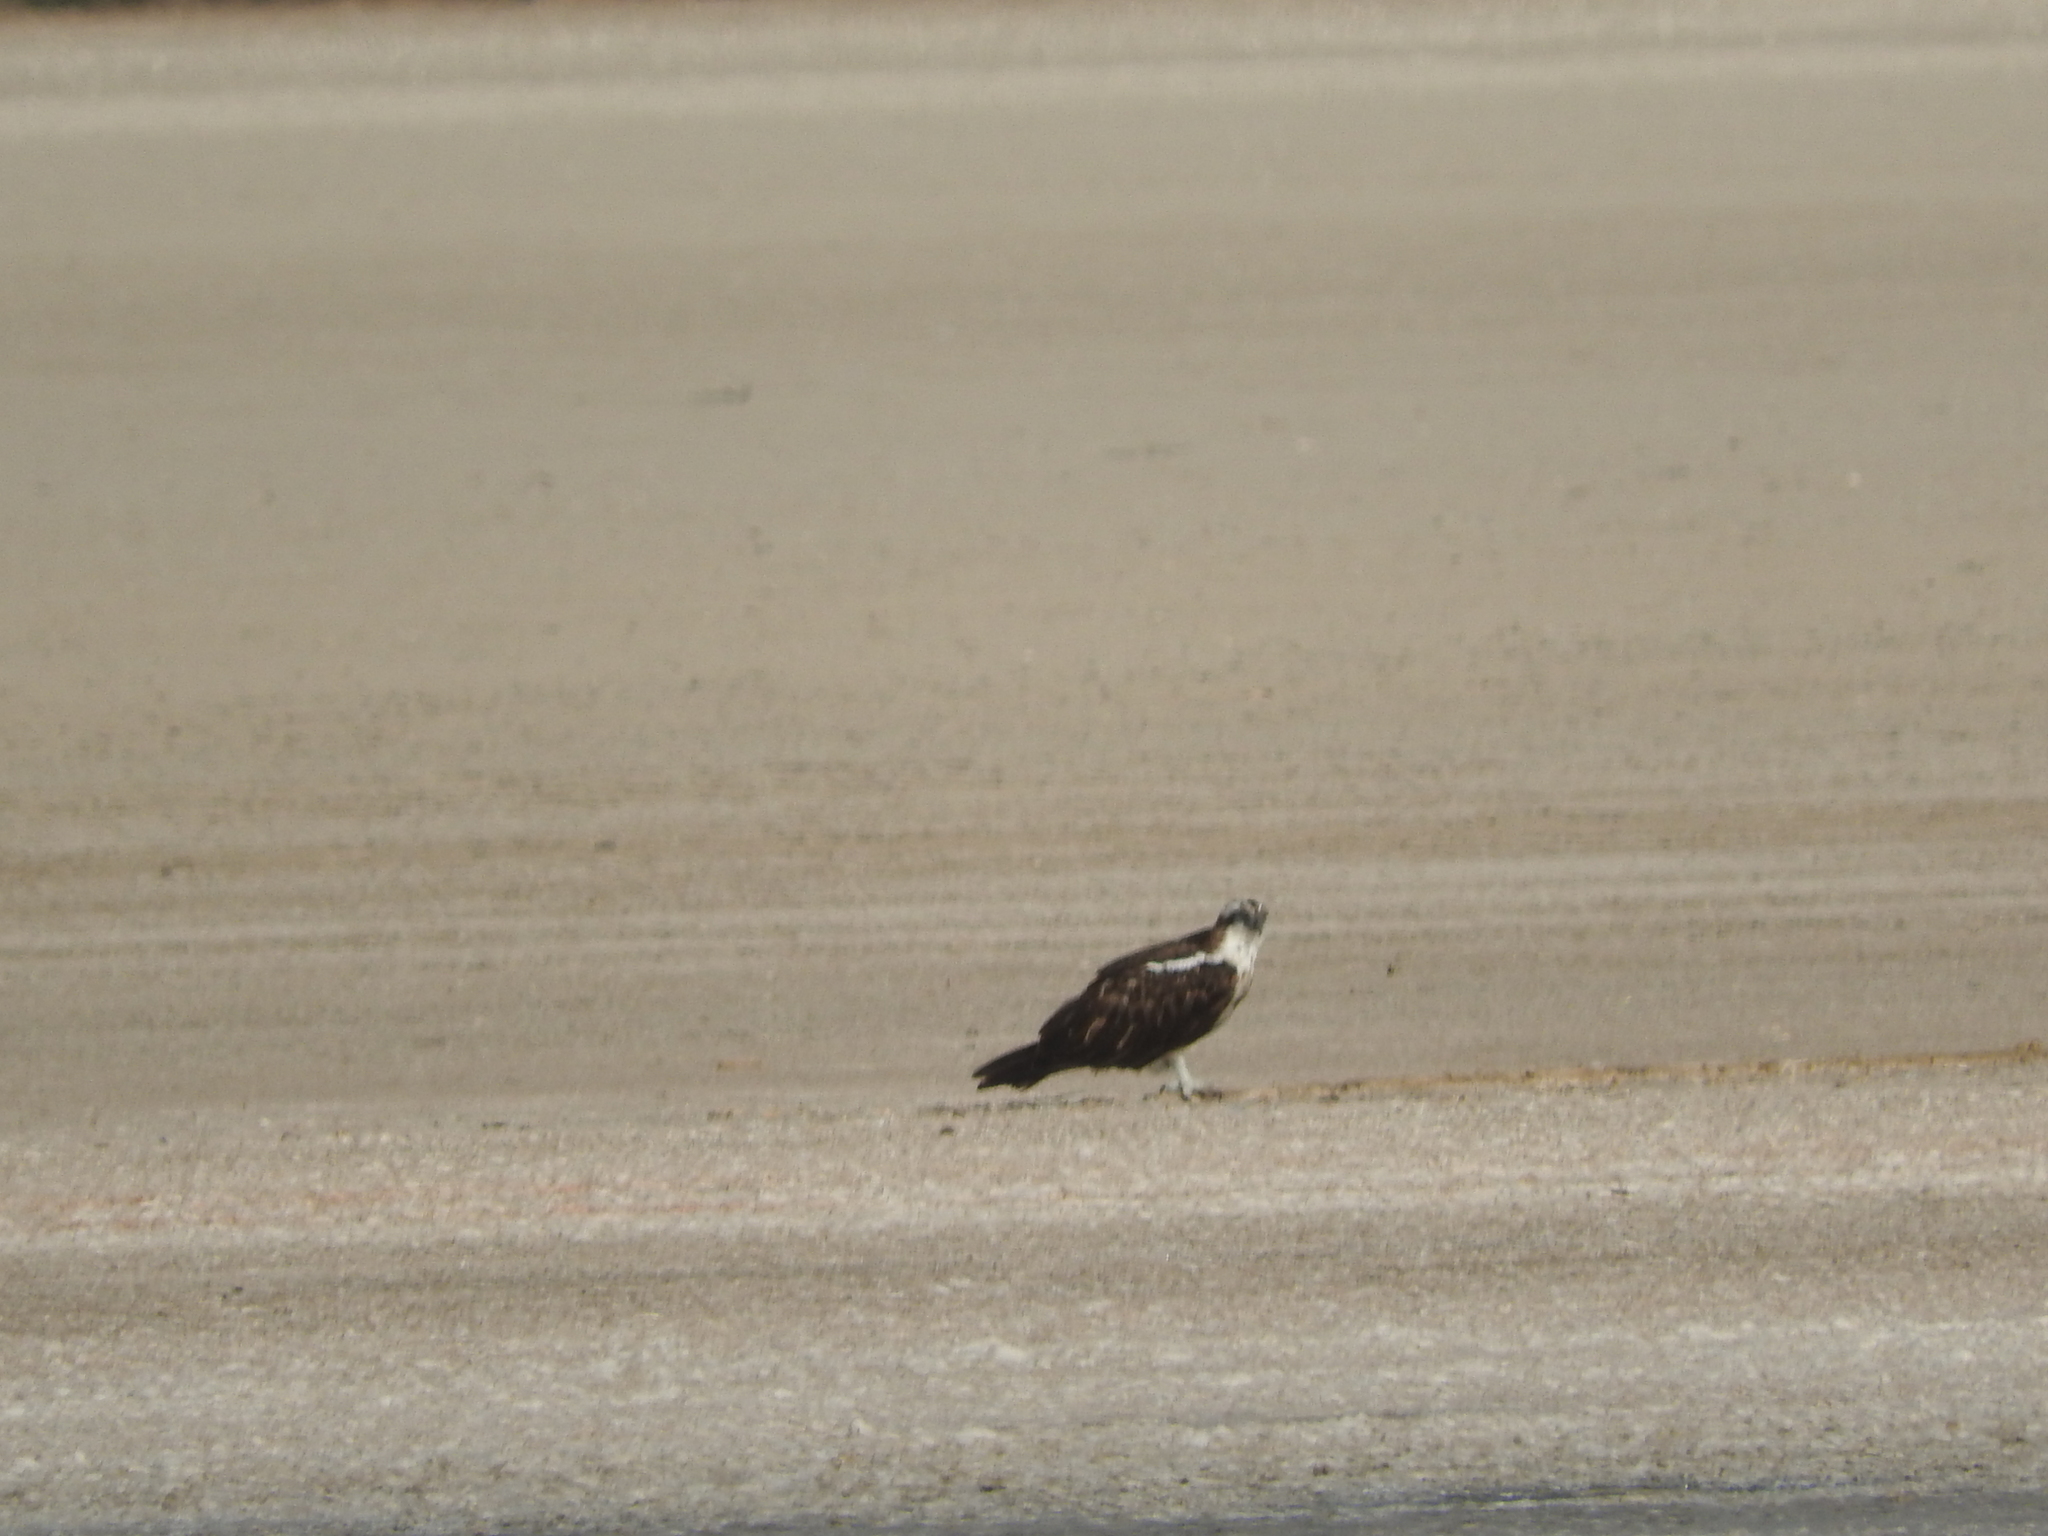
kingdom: Animalia
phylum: Chordata
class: Aves
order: Accipitriformes
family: Pandionidae
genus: Pandion
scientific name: Pandion haliaetus
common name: Osprey
